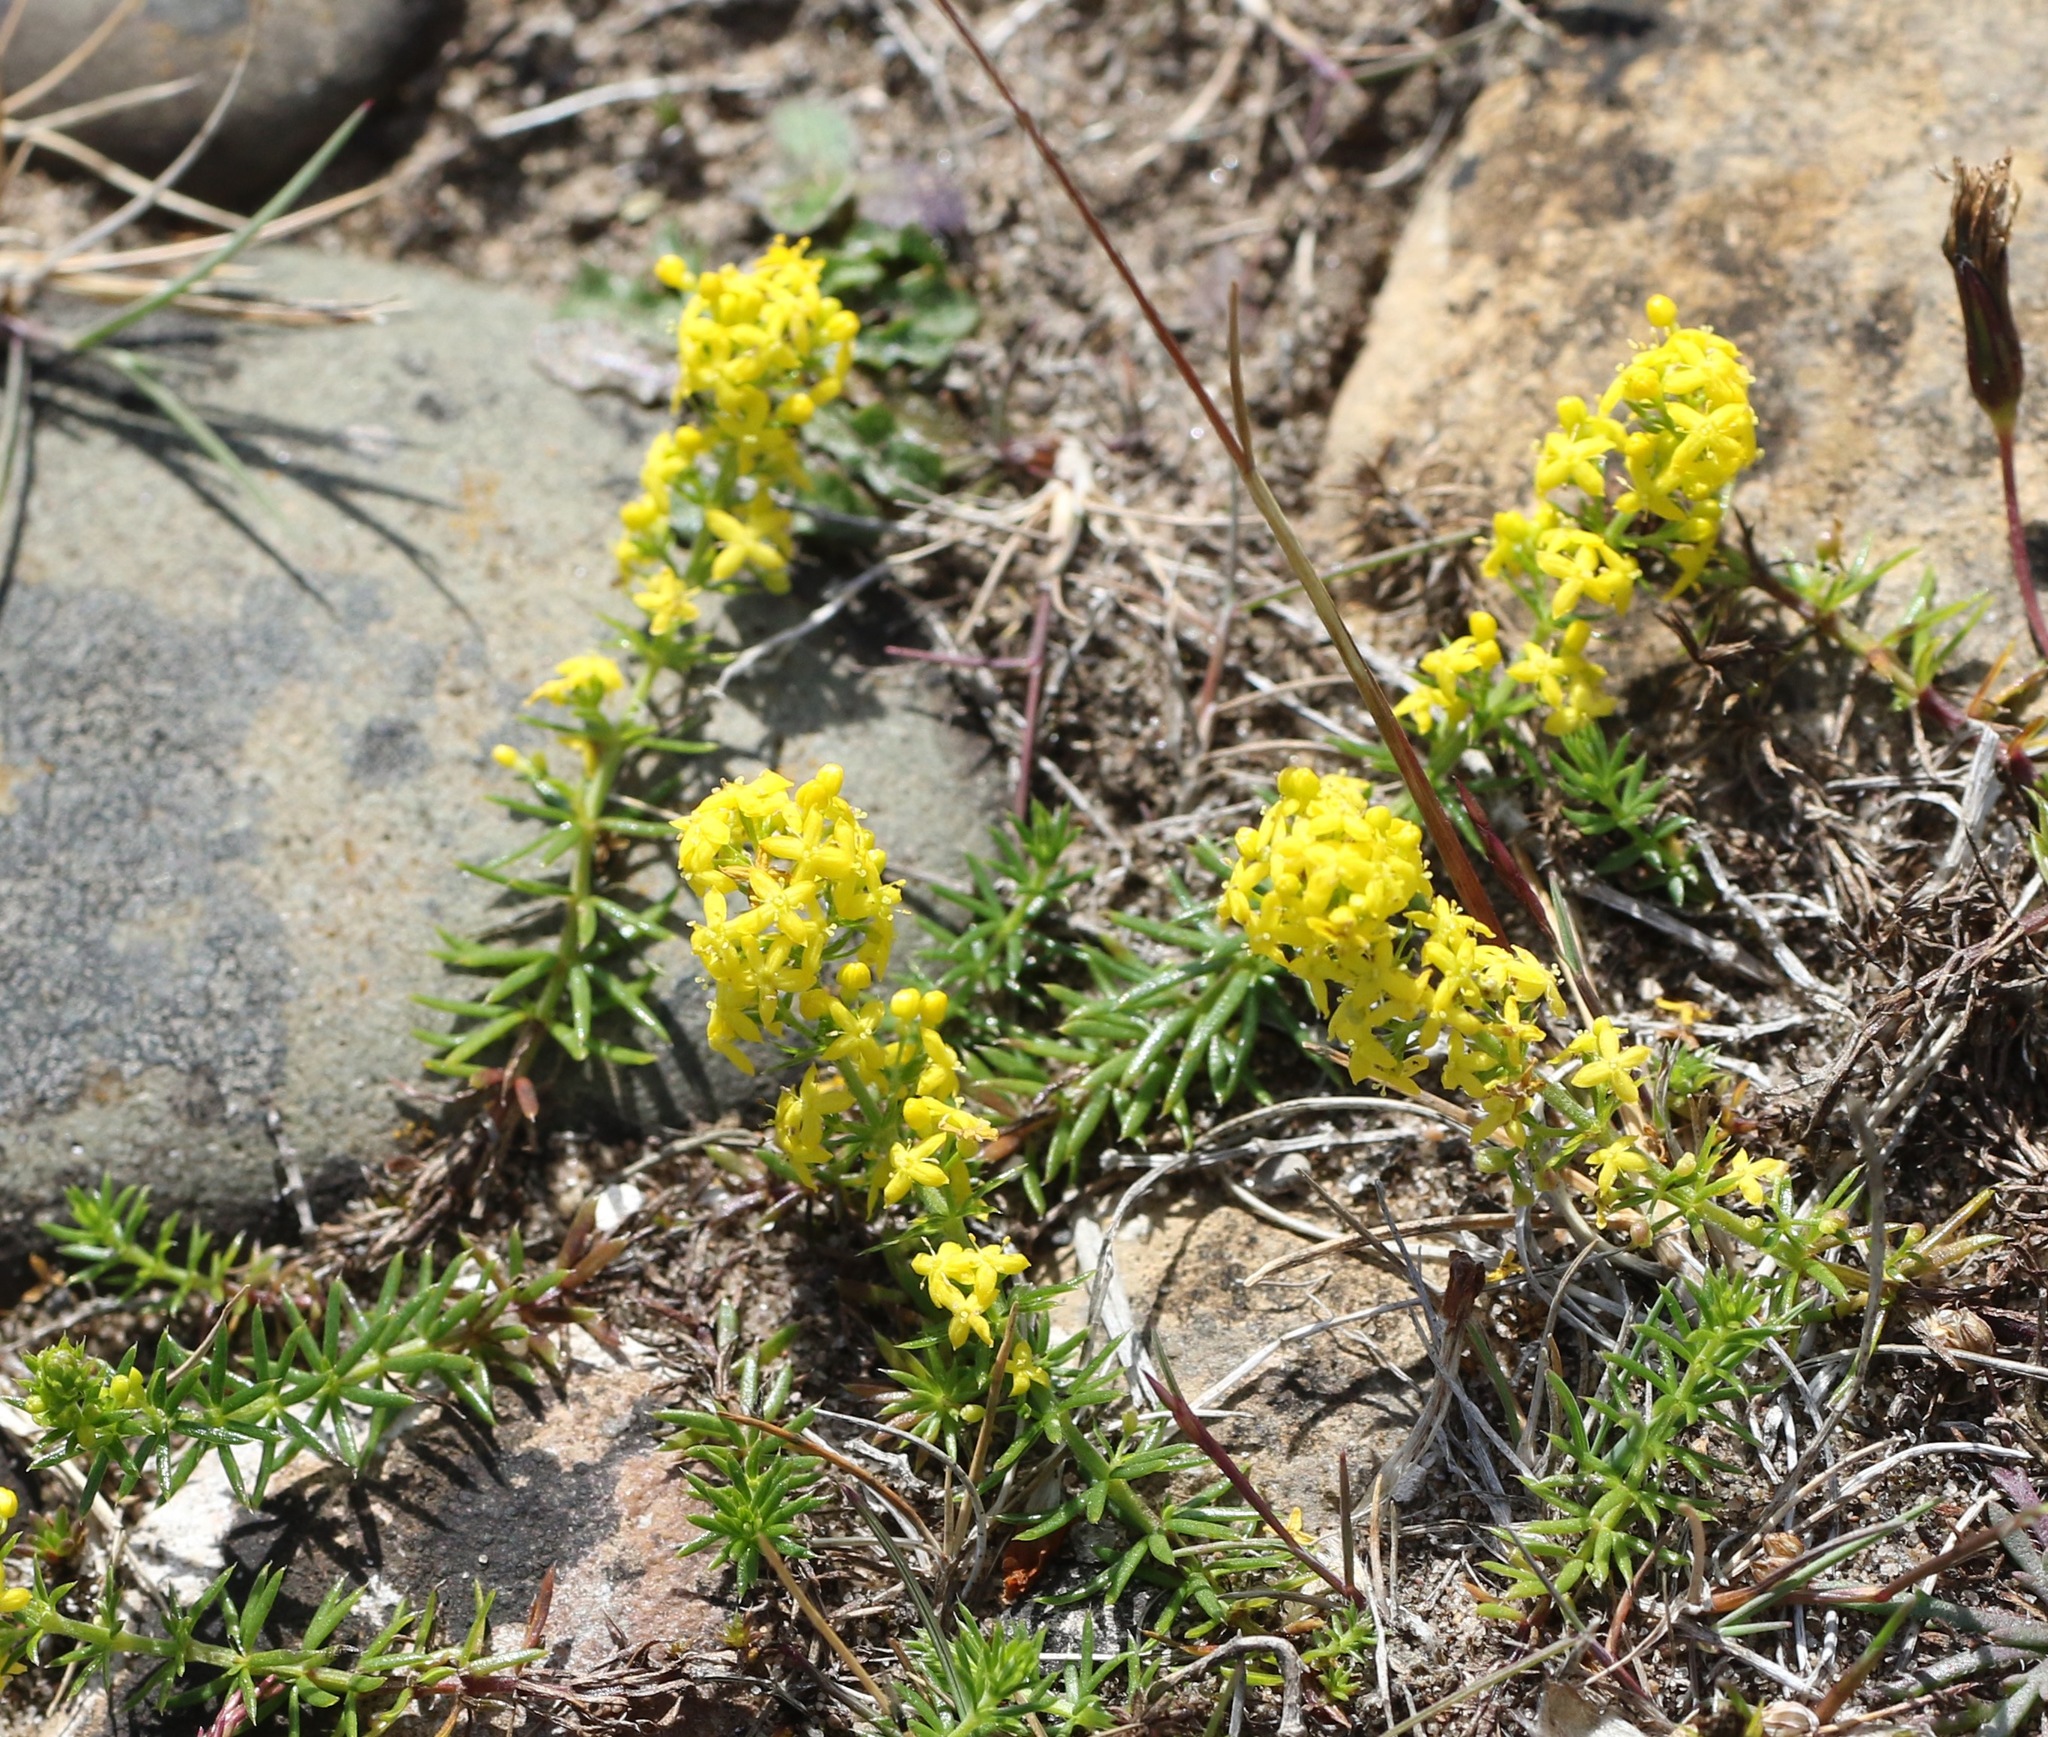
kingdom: Plantae
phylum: Tracheophyta
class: Magnoliopsida
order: Gentianales
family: Rubiaceae
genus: Galium
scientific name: Galium verum
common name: Lady's bedstraw
